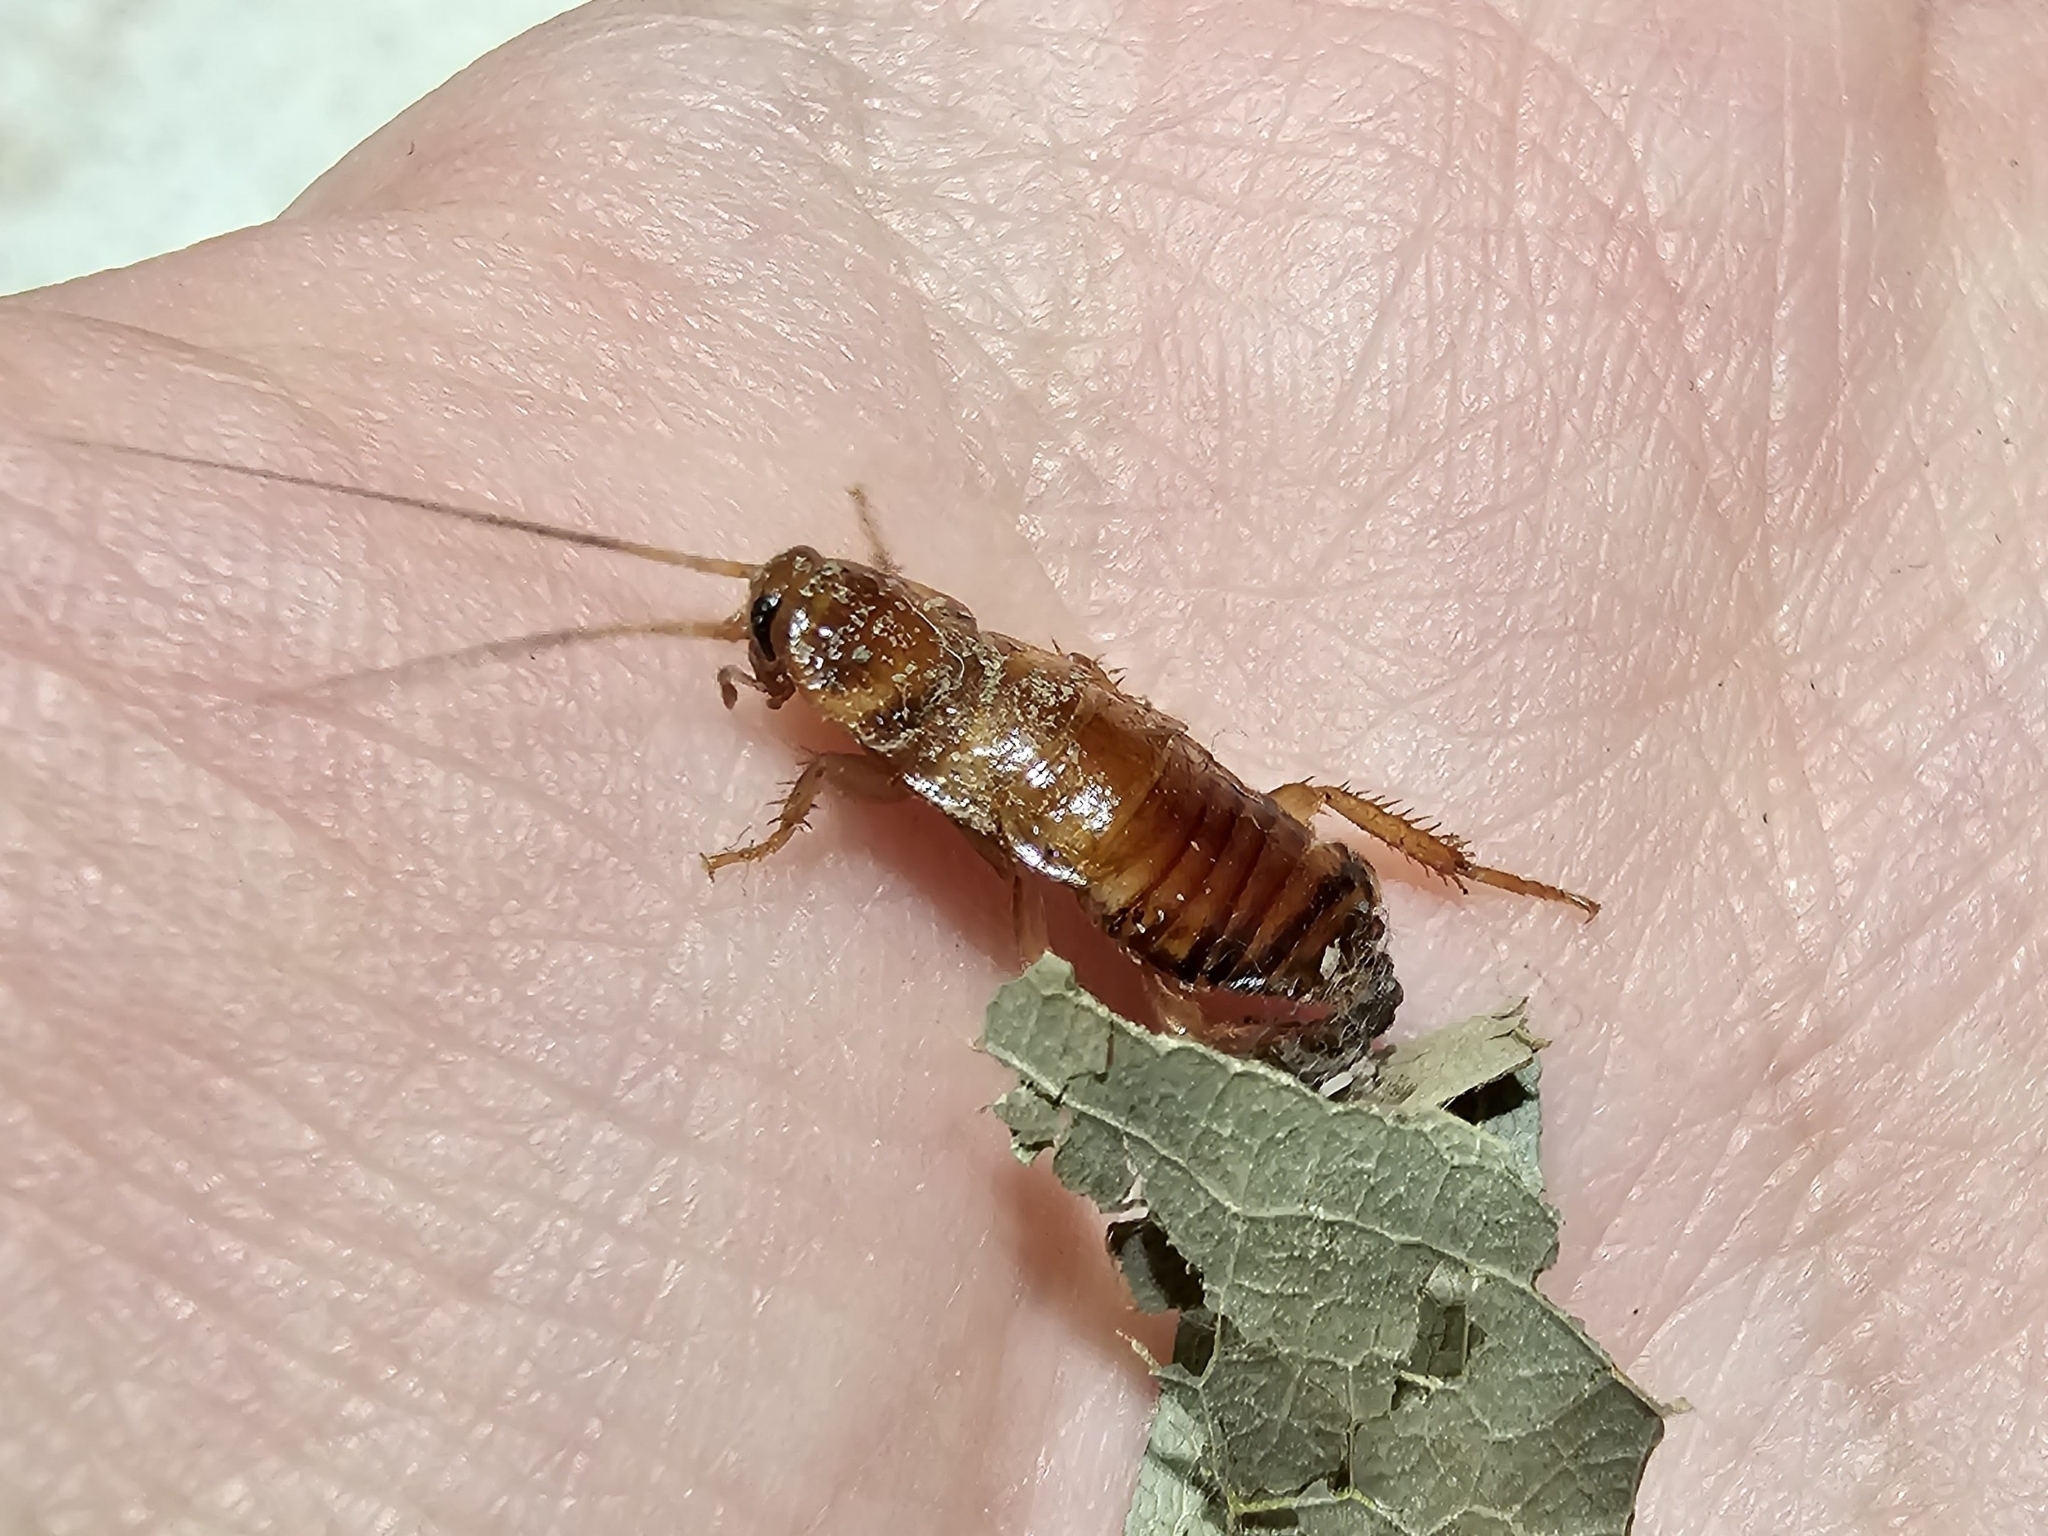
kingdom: Animalia
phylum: Arthropoda
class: Insecta
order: Blattodea
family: Blattidae
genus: Periplaneta
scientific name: Periplaneta australasiae
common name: Australian cockroach
